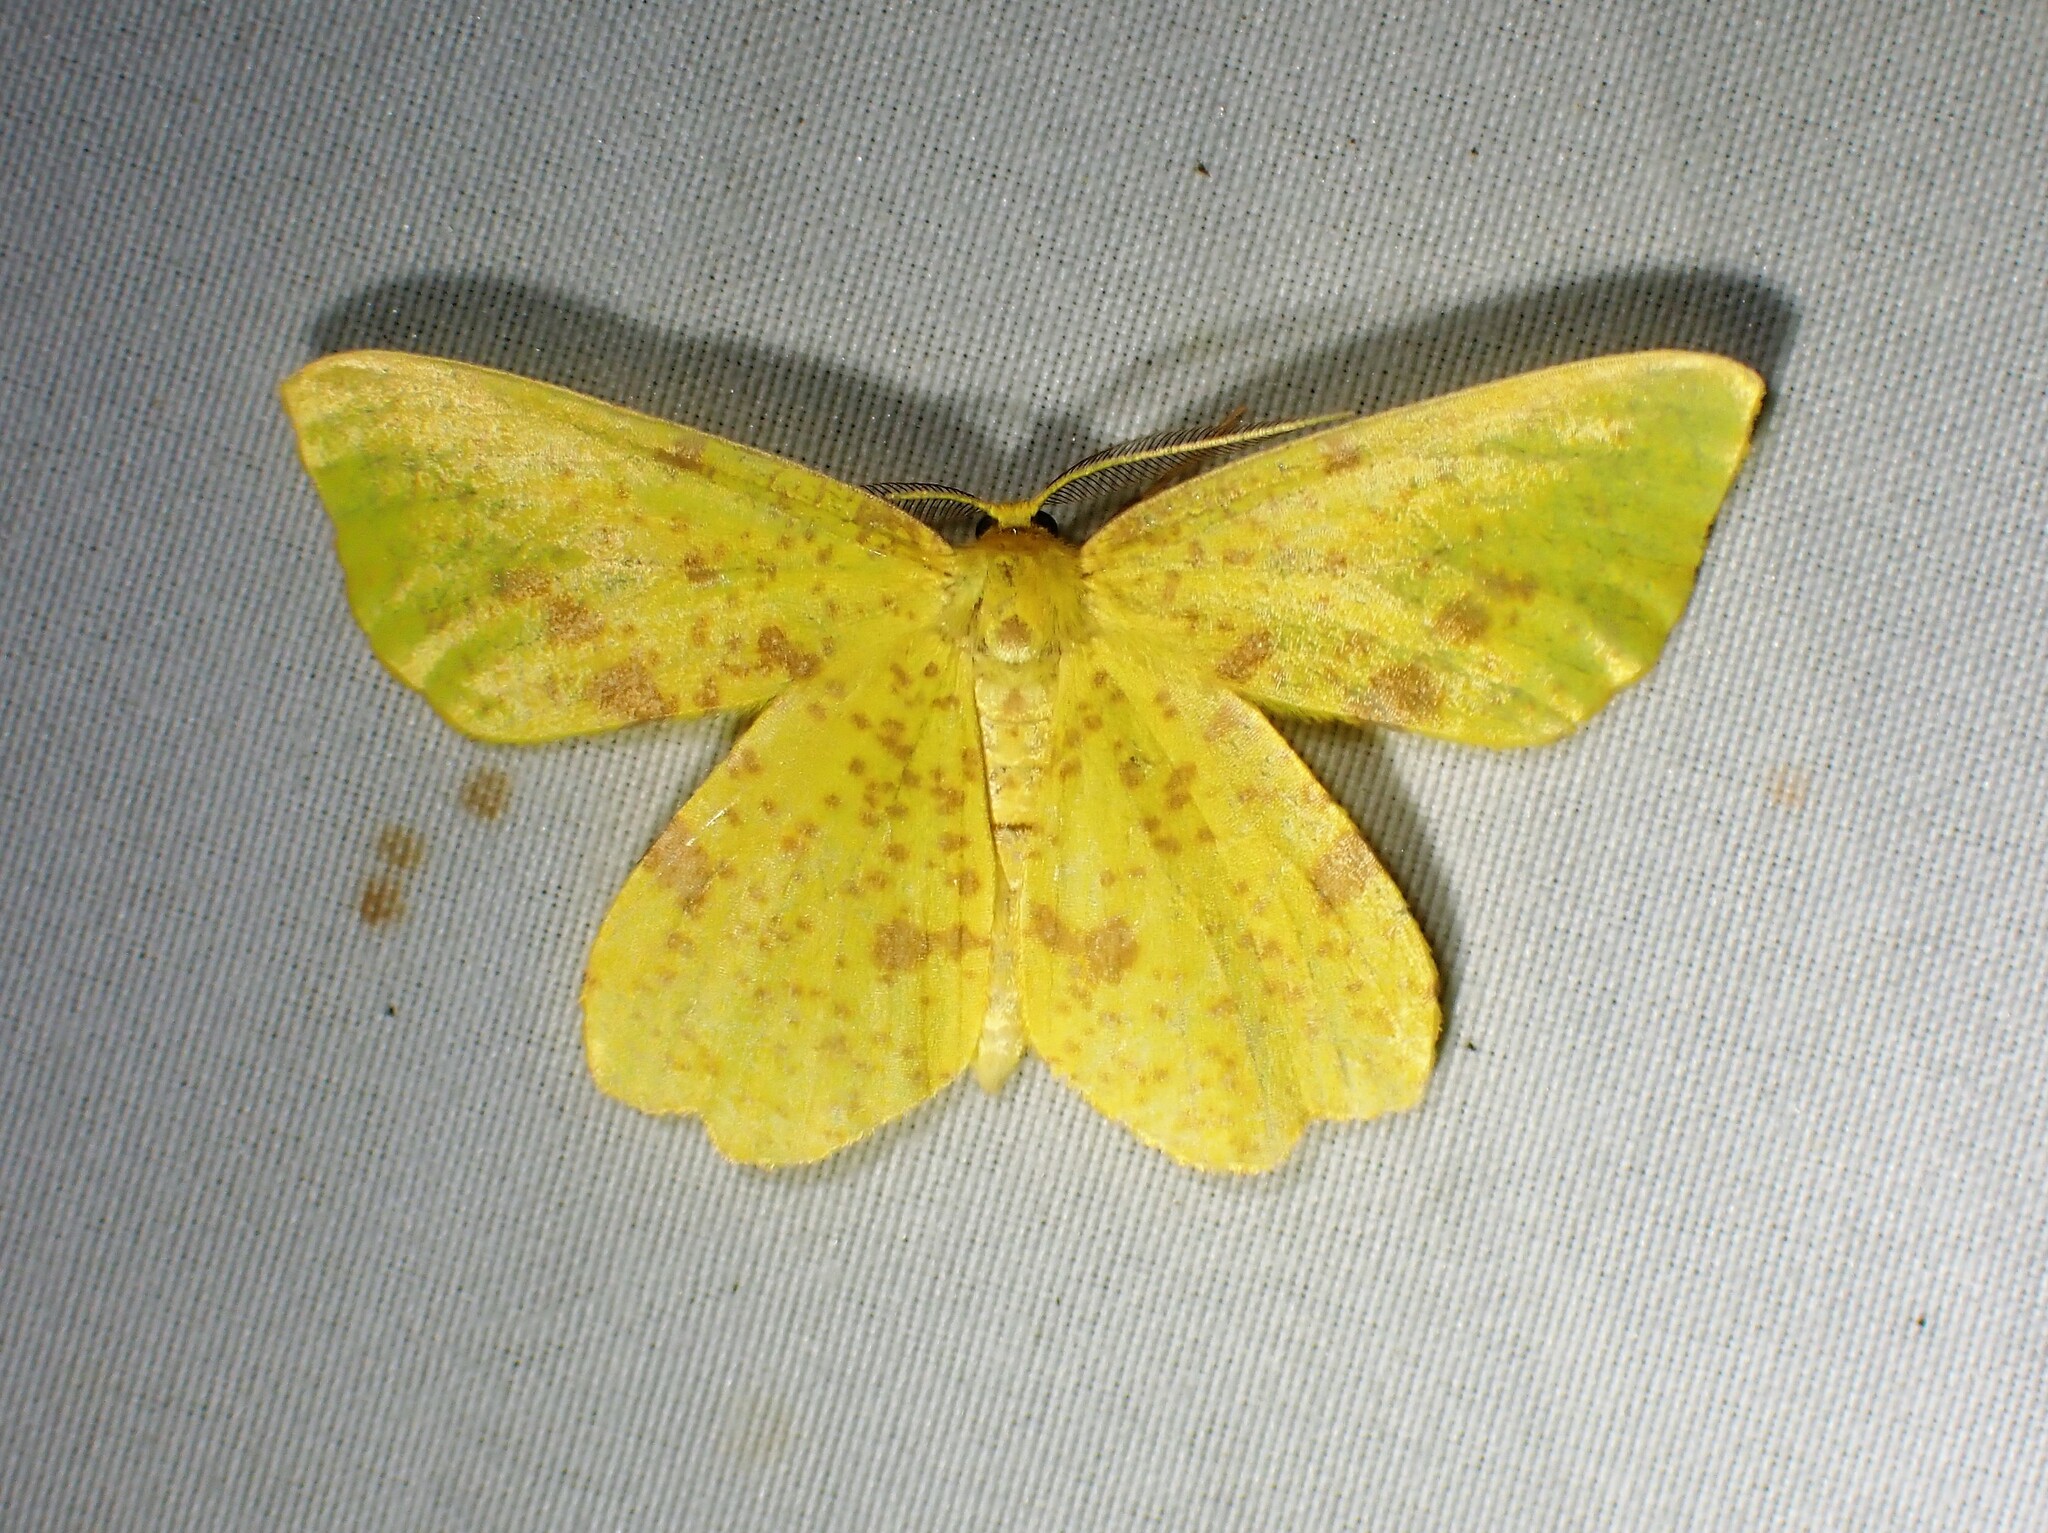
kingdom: Animalia
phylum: Arthropoda
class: Insecta
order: Lepidoptera
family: Geometridae
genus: Xanthotype
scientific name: Xanthotype
